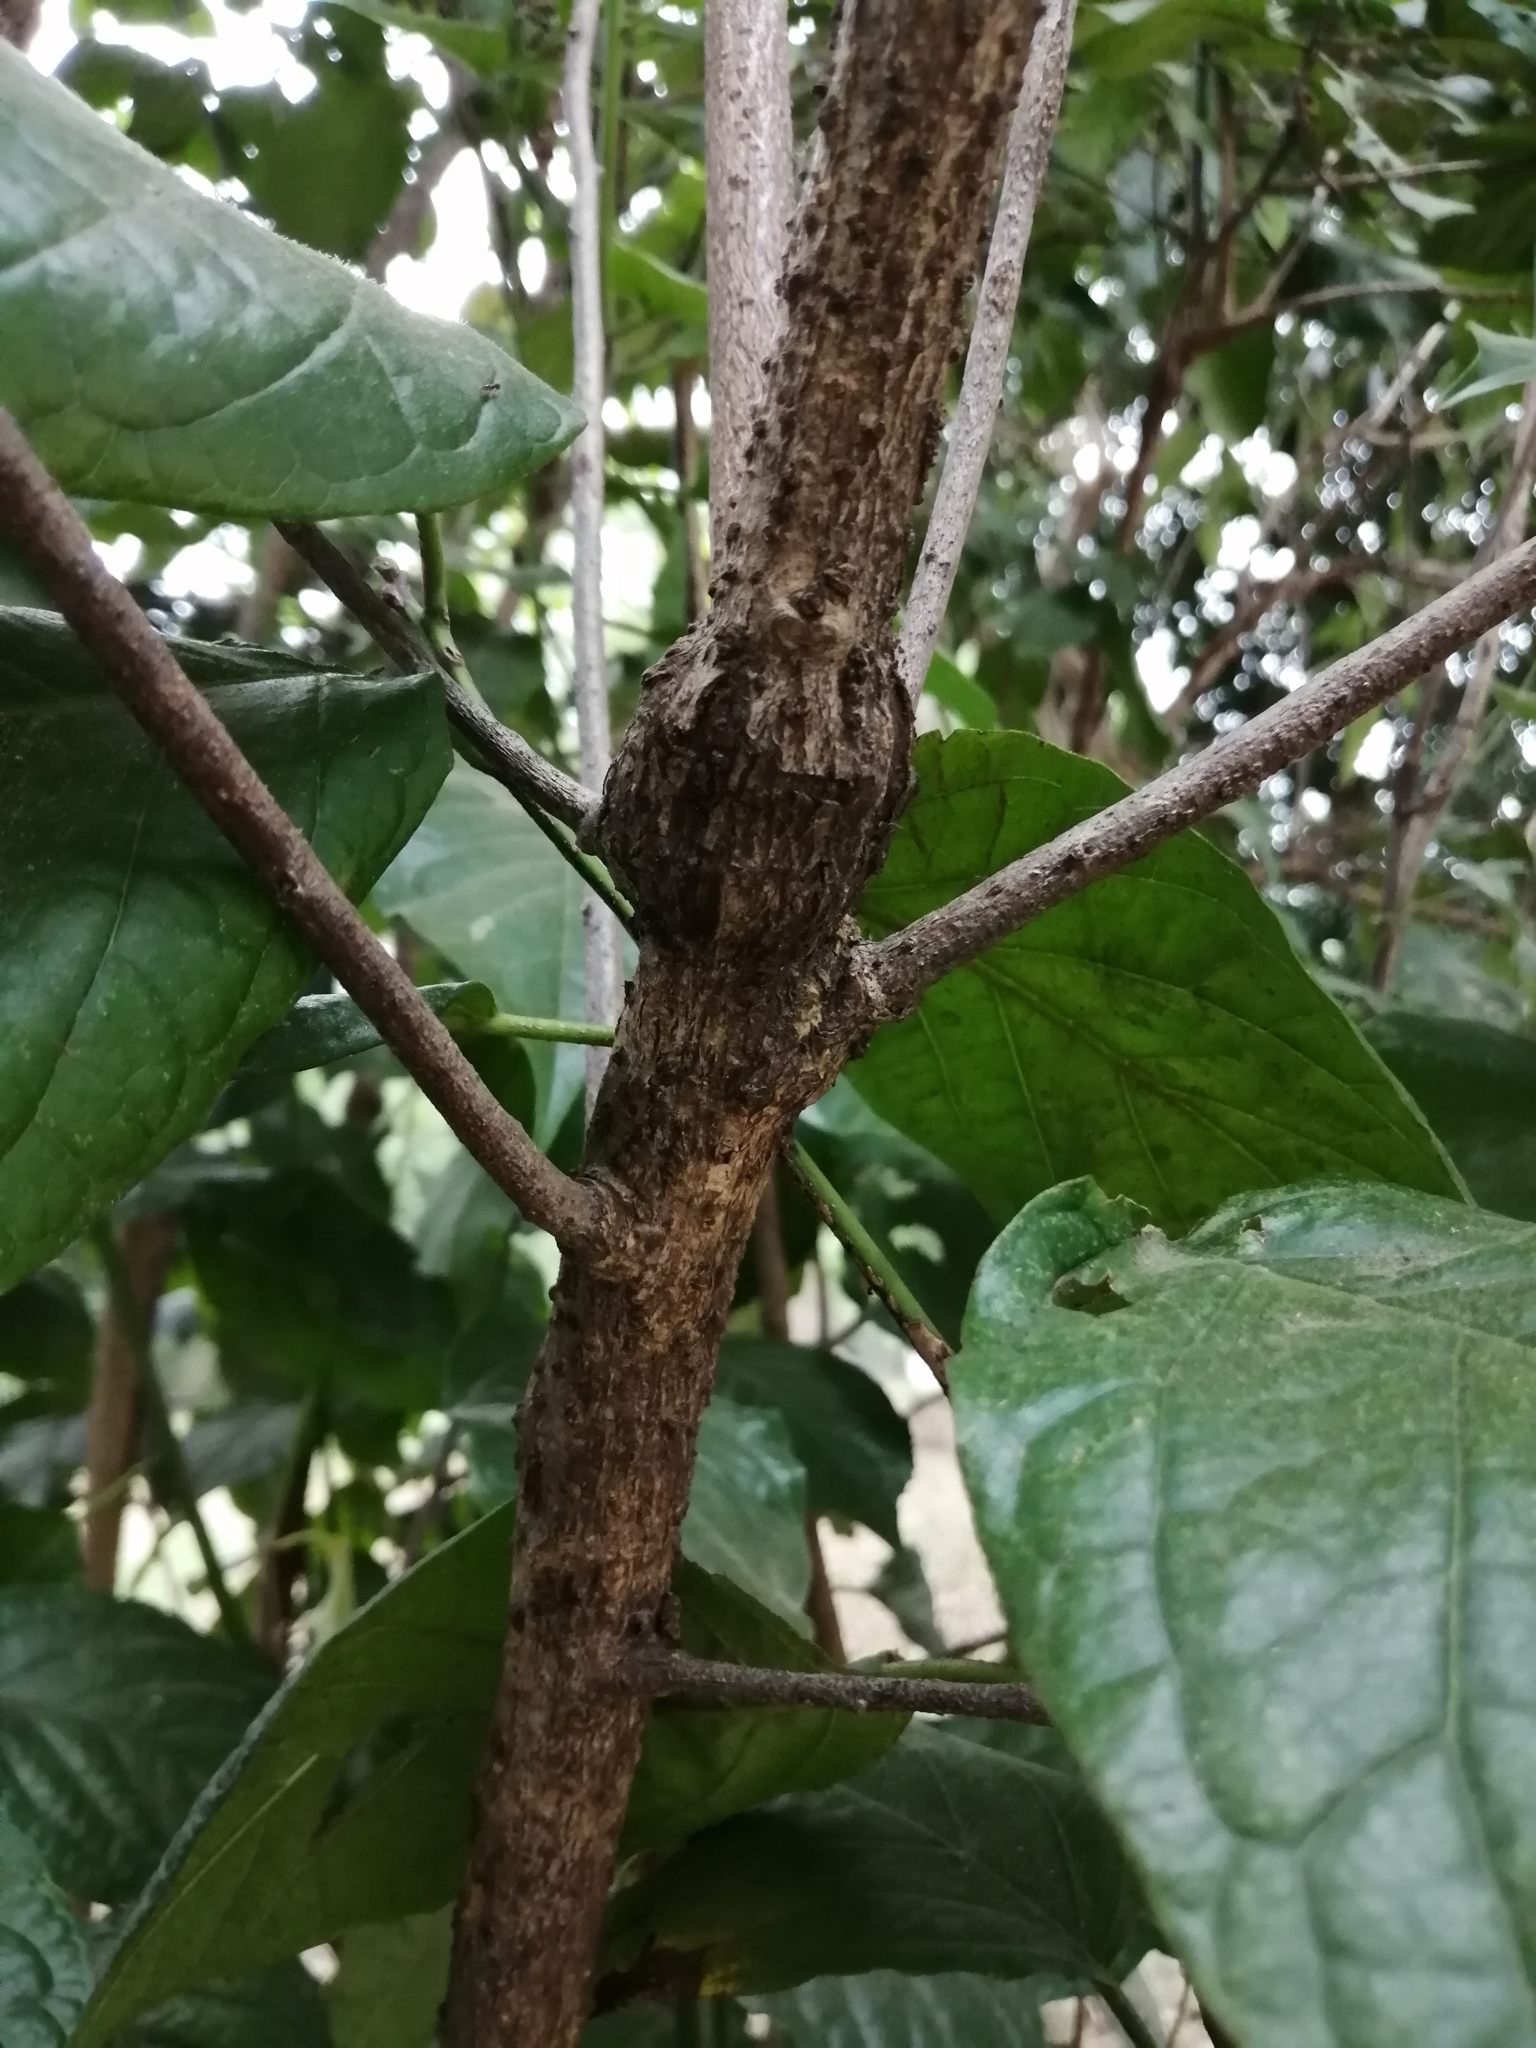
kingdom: Plantae
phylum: Tracheophyta
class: Magnoliopsida
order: Boraginales
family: Ehretiaceae
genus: Ehretia
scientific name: Ehretia resinosa
